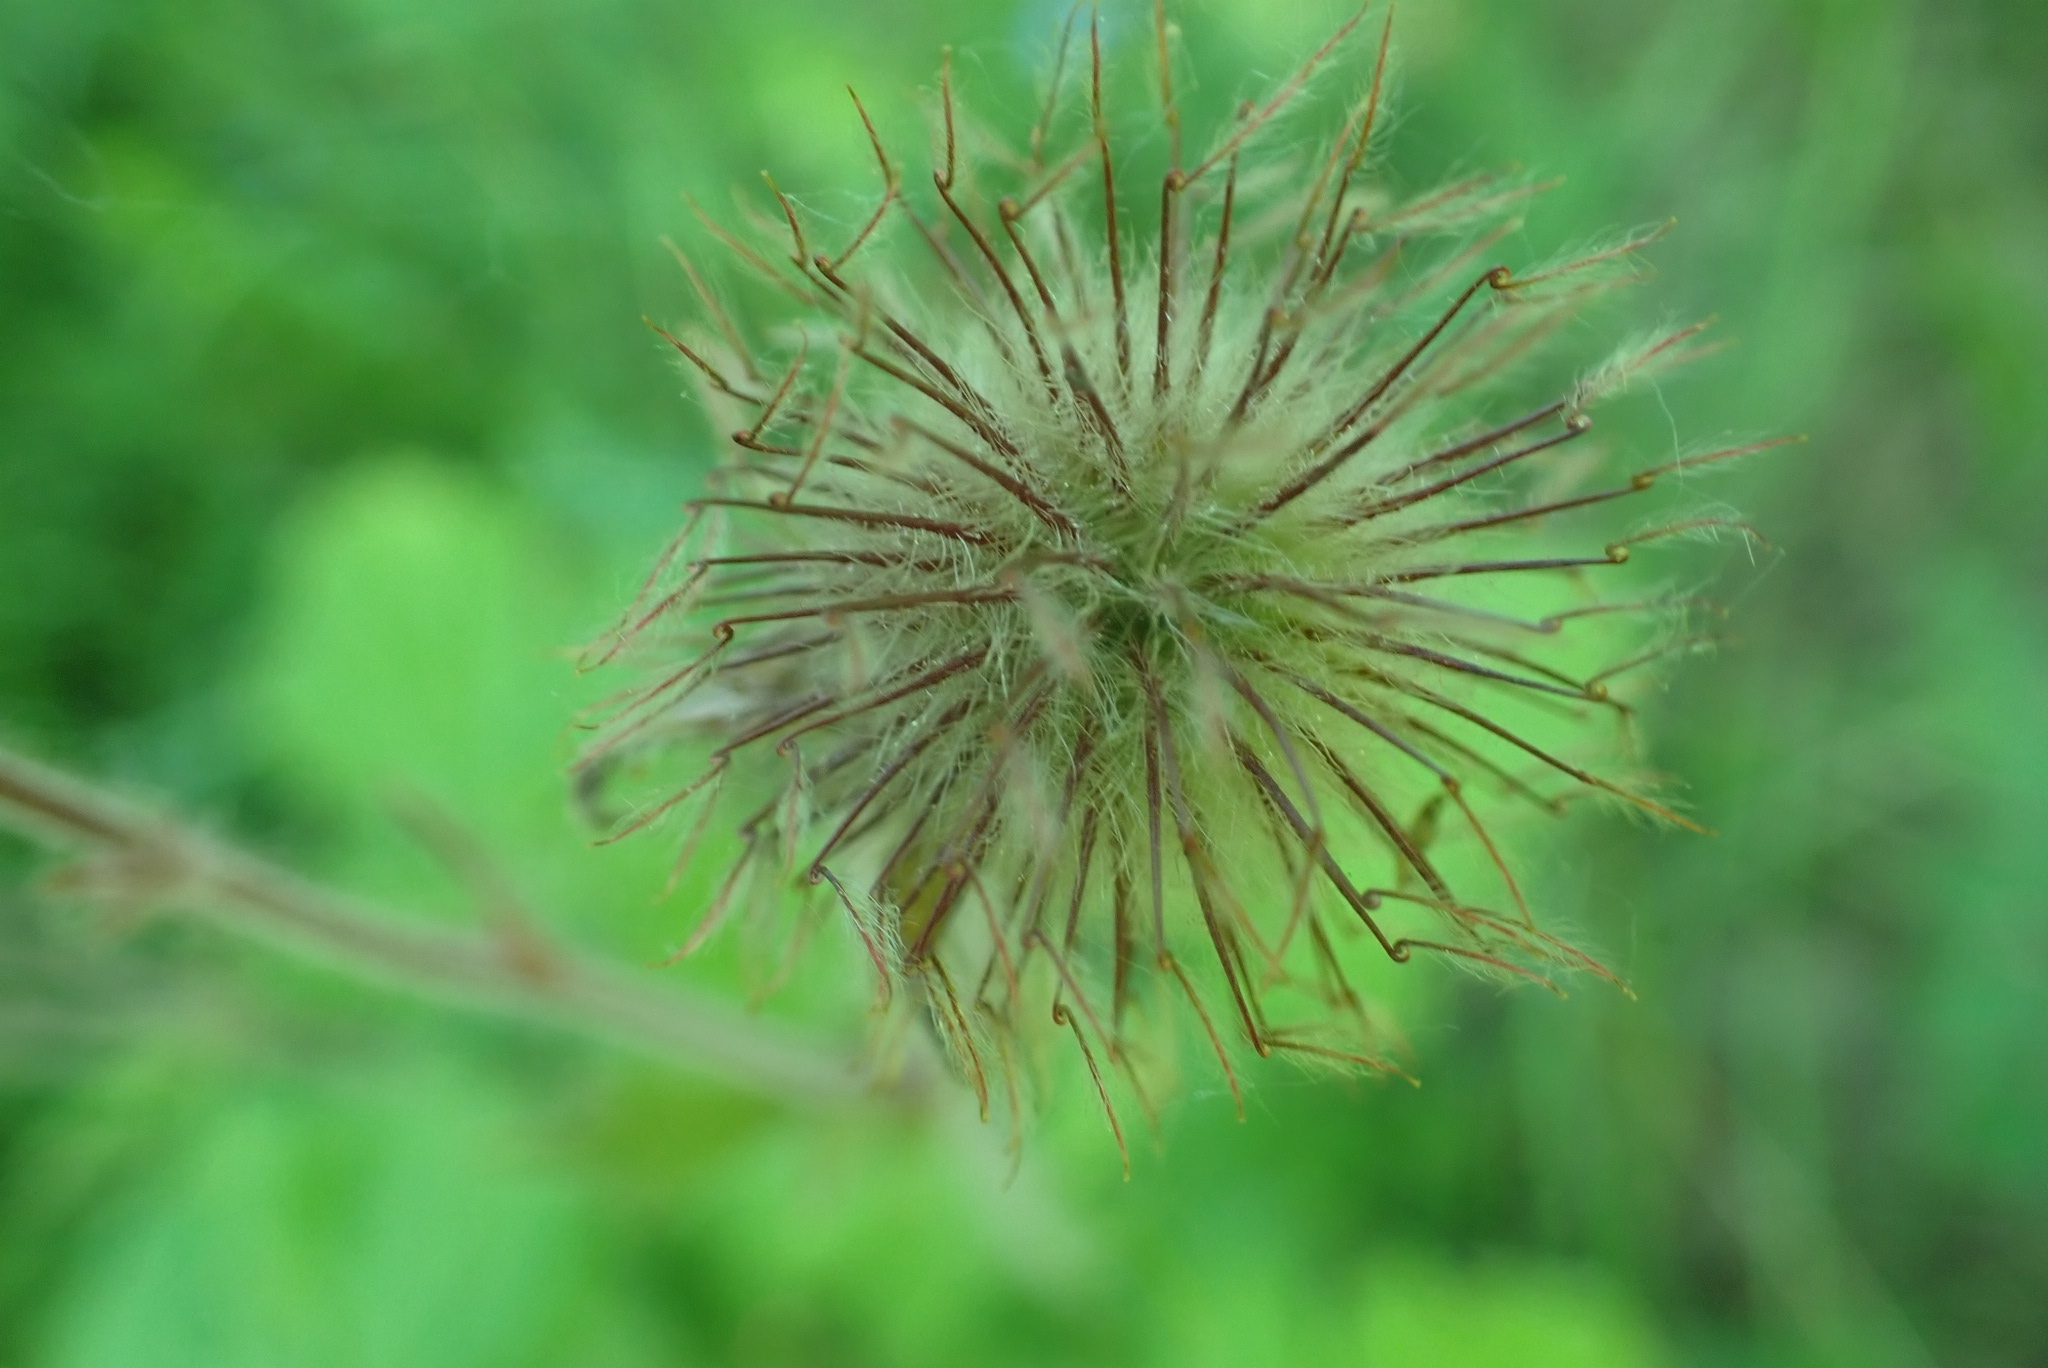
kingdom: Plantae
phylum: Tracheophyta
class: Magnoliopsida
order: Rosales
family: Rosaceae
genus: Geum
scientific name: Geum rivale
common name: Water avens
